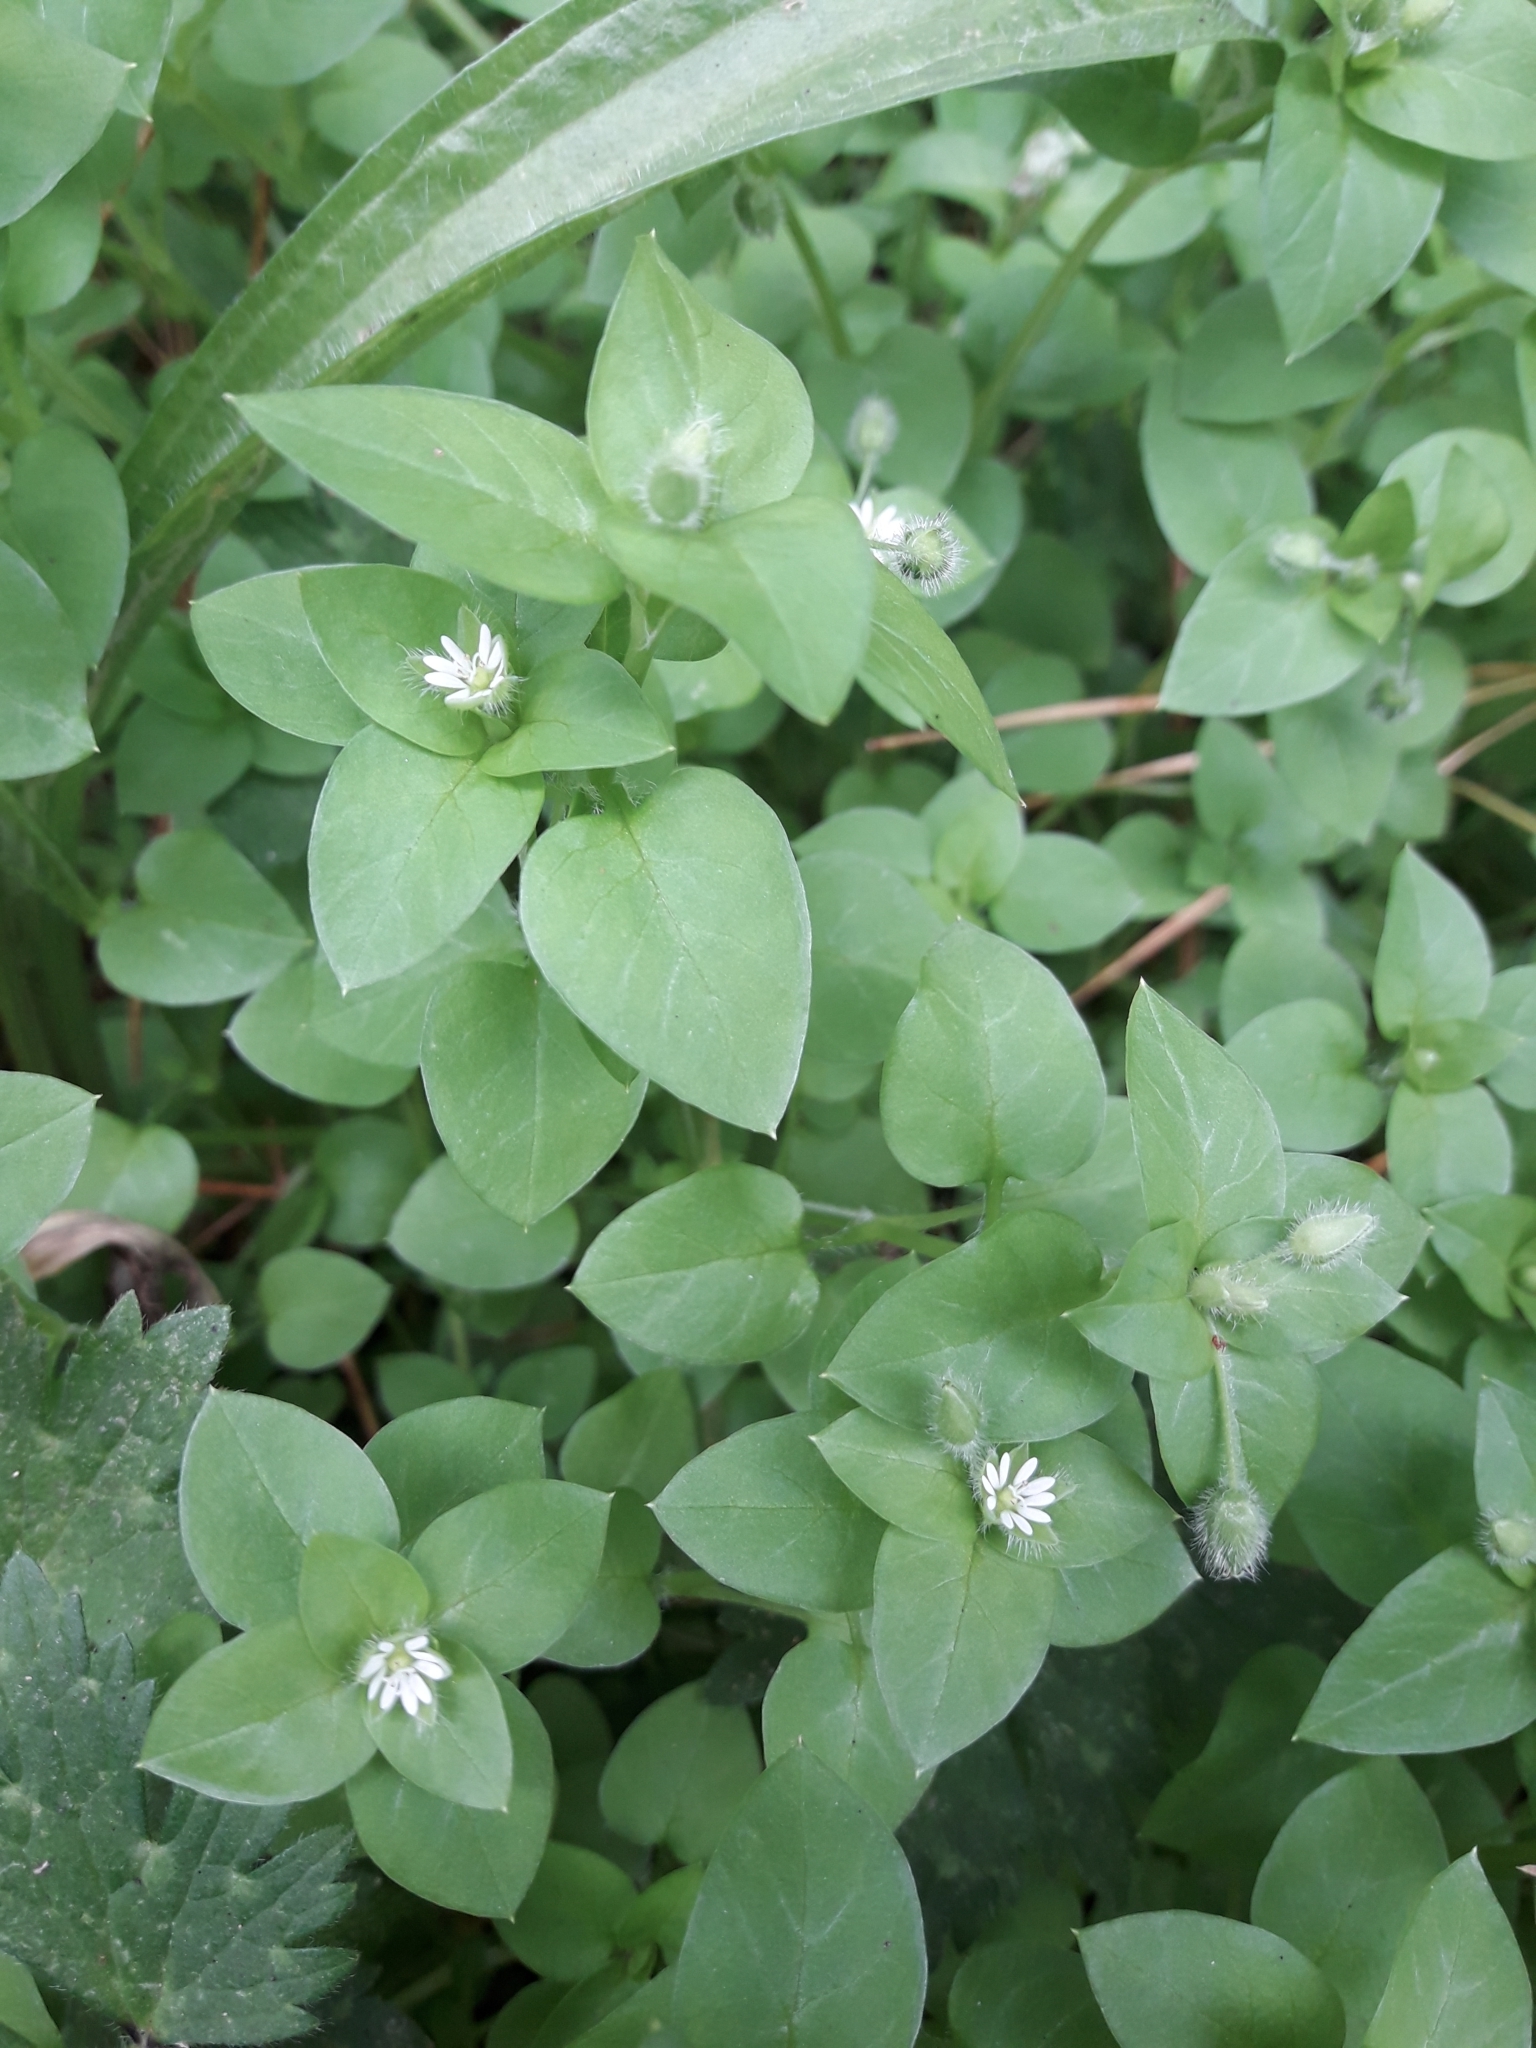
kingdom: Plantae
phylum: Tracheophyta
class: Magnoliopsida
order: Caryophyllales
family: Caryophyllaceae
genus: Stellaria
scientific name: Stellaria media
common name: Common chickweed
